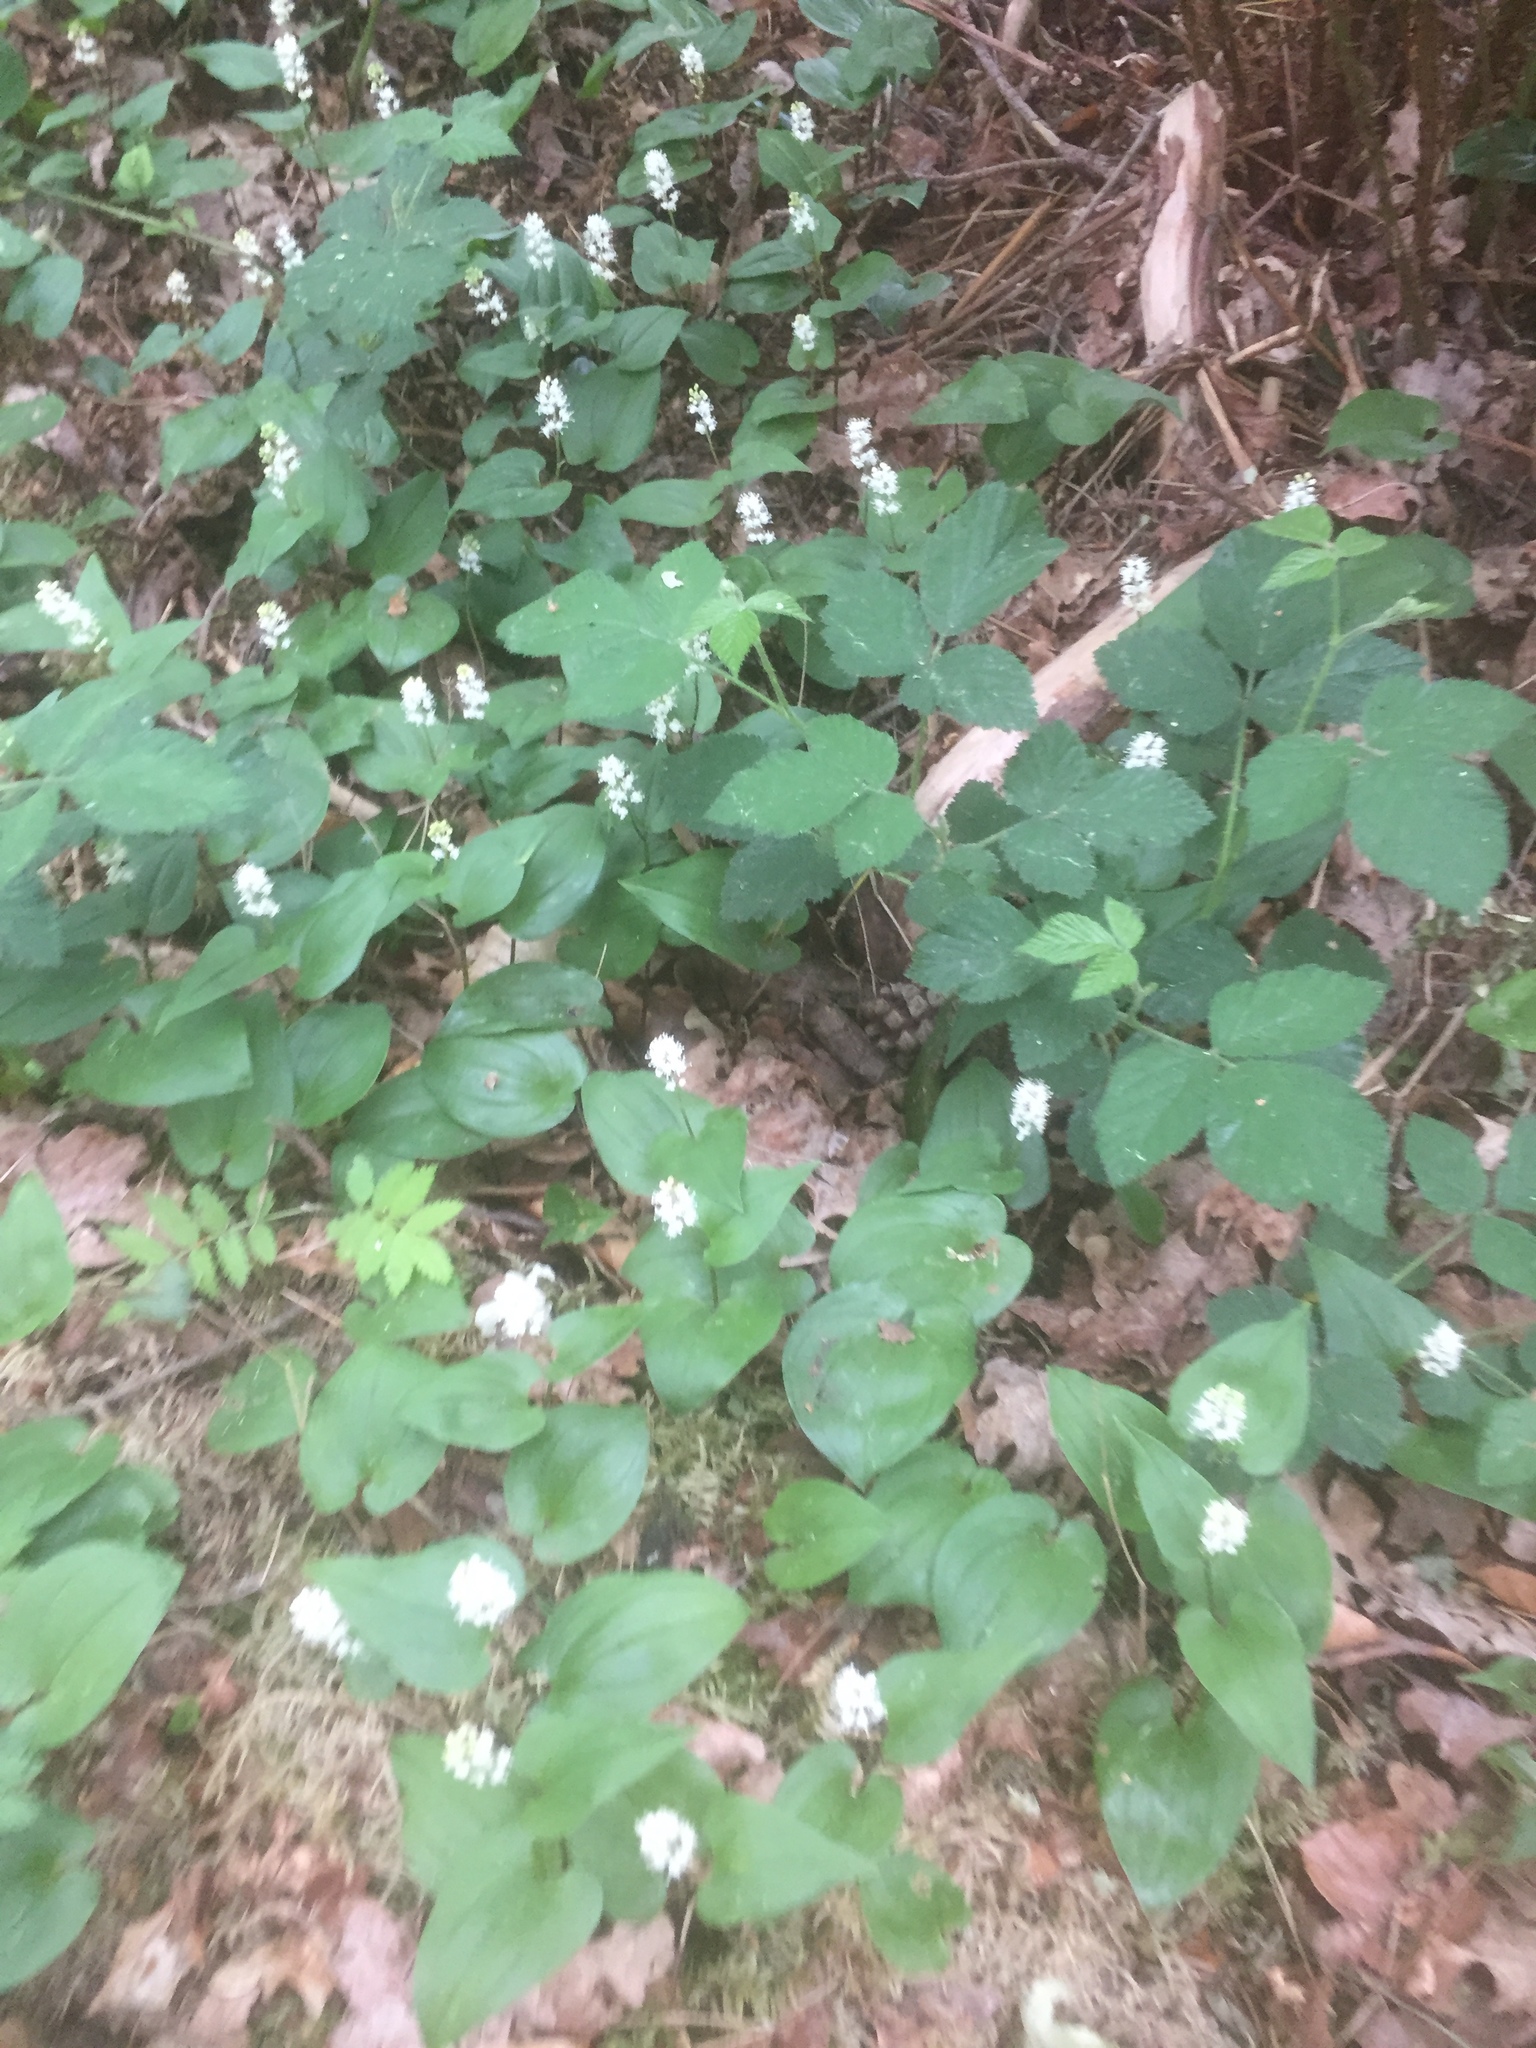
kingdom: Plantae
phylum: Tracheophyta
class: Liliopsida
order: Asparagales
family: Asparagaceae
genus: Maianthemum
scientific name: Maianthemum bifolium
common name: May lily
